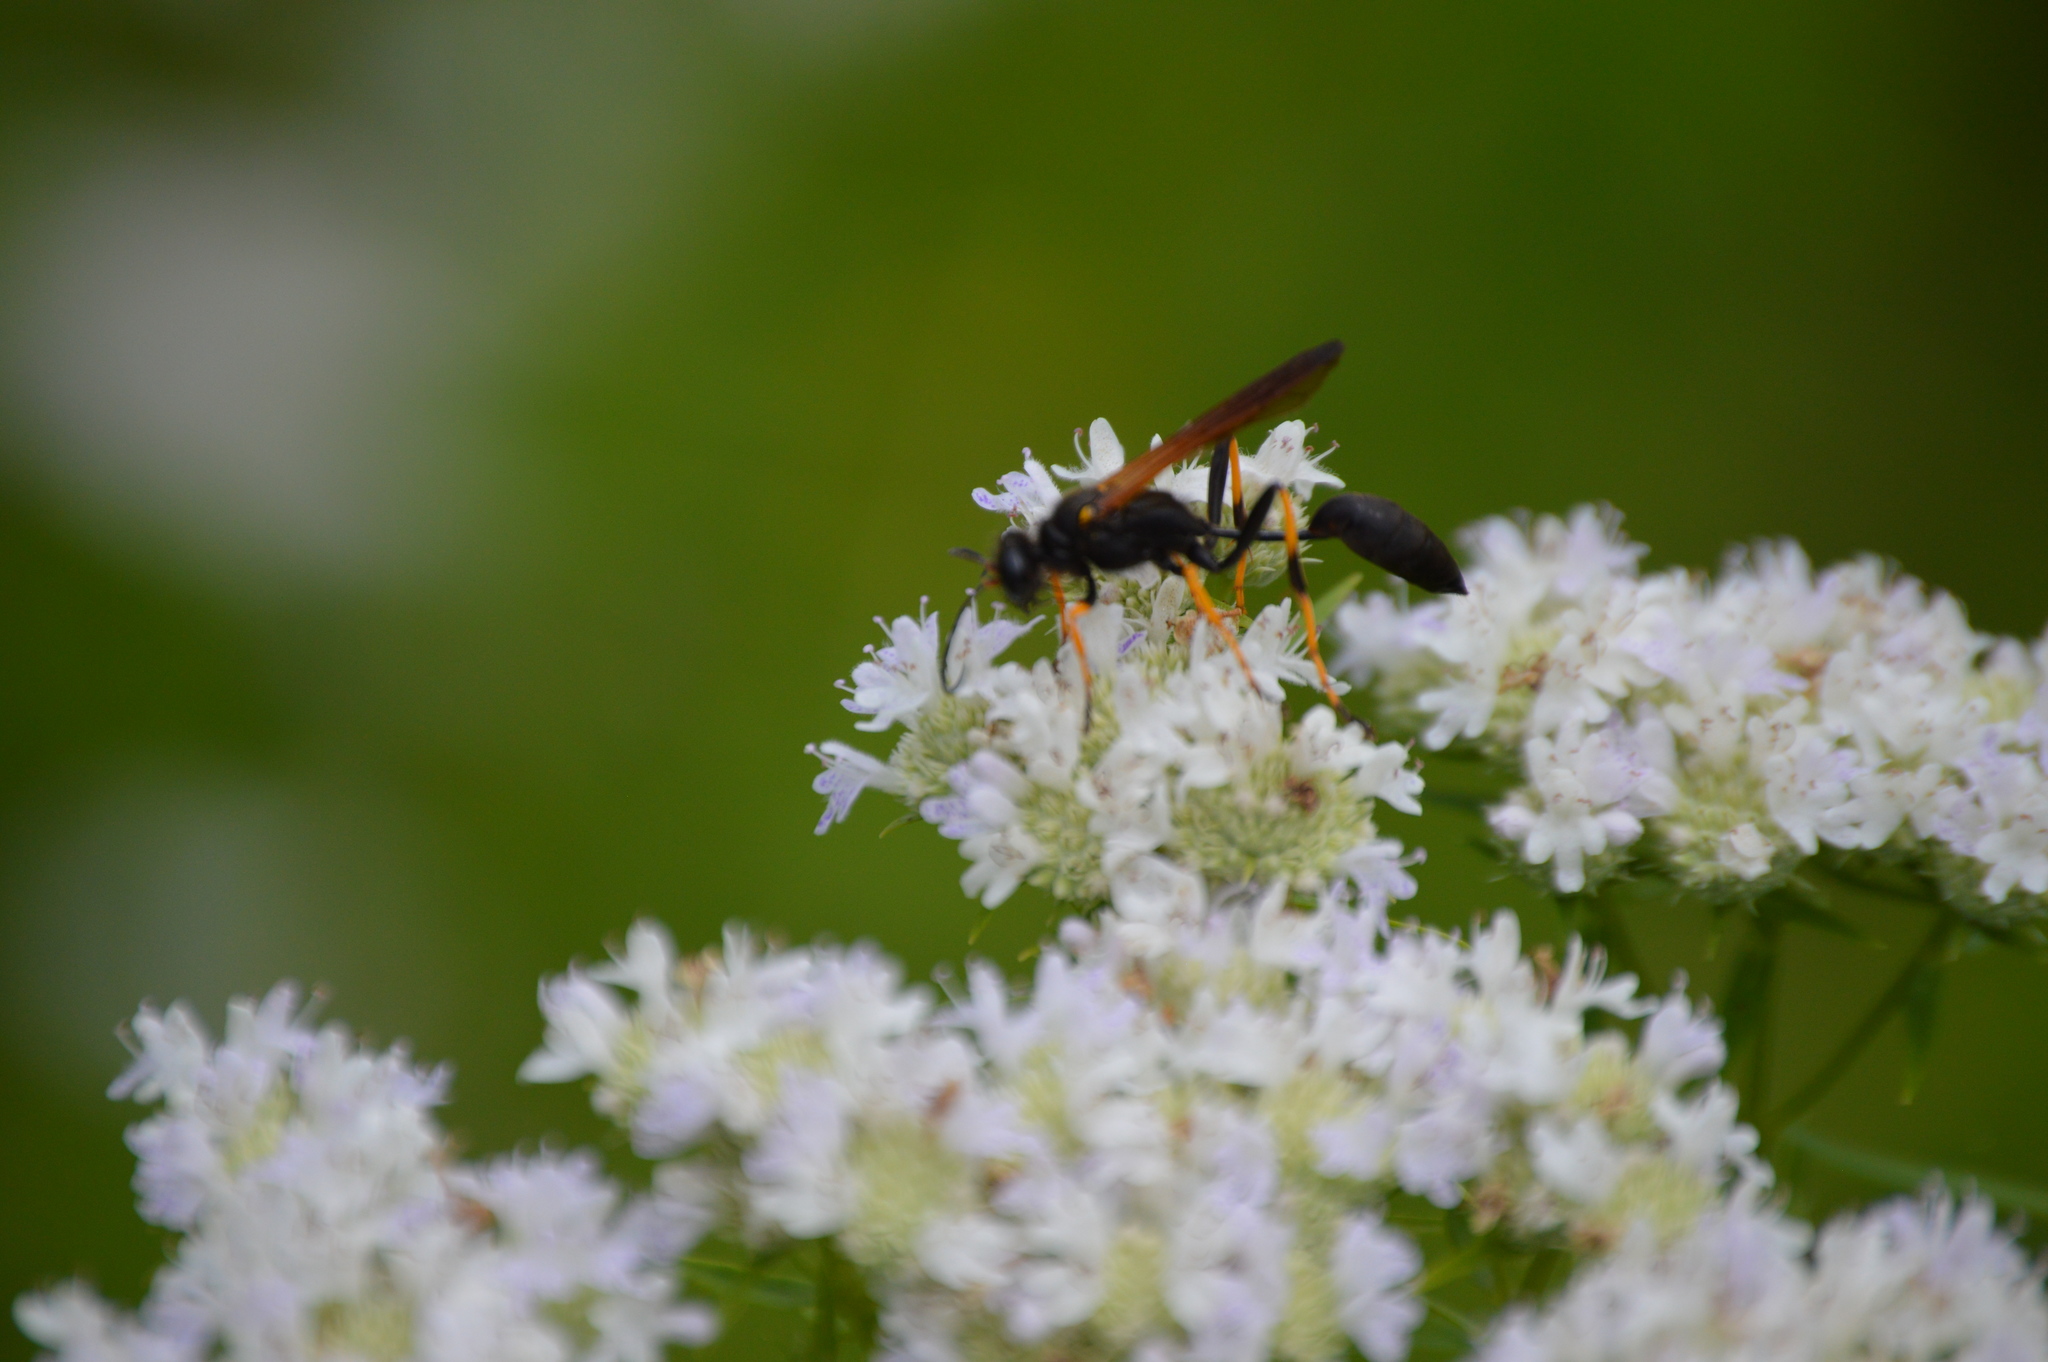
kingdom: Animalia
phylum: Arthropoda
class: Insecta
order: Hymenoptera
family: Sphecidae
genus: Sceliphron
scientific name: Sceliphron caementarium
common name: Mud dauber
